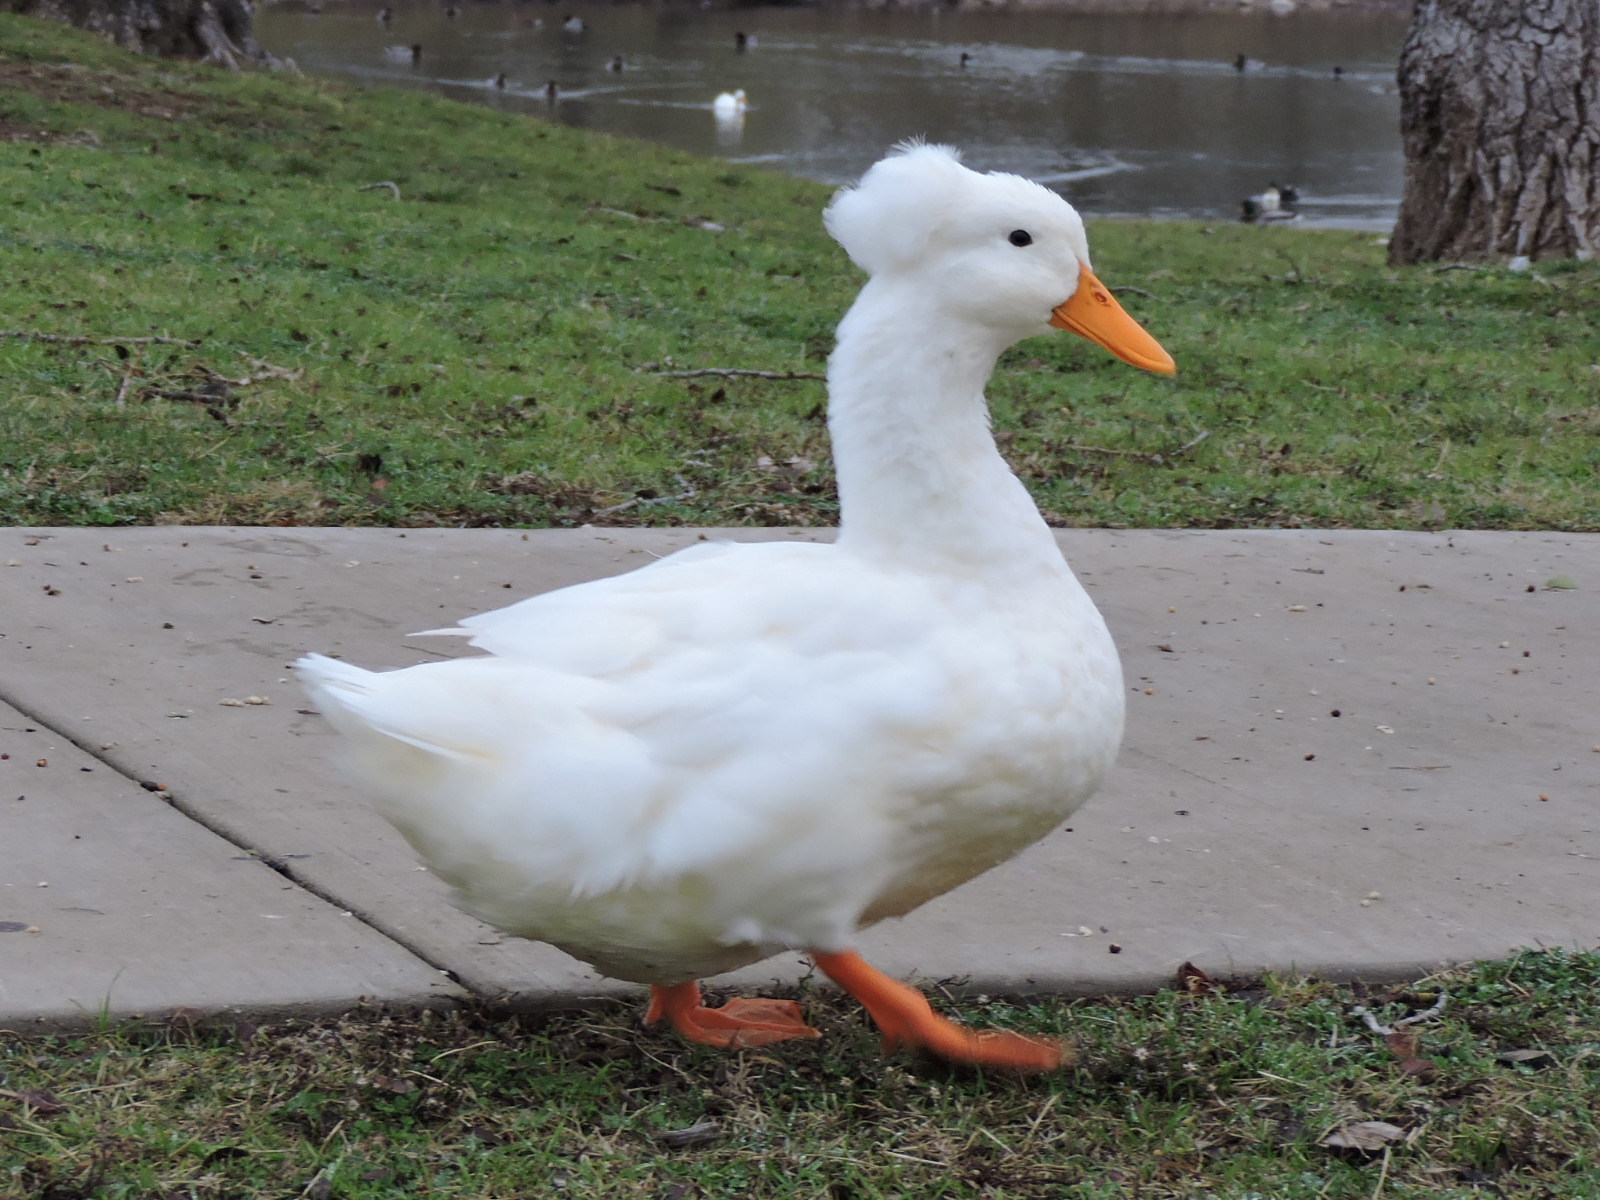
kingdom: Animalia
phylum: Chordata
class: Aves
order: Anseriformes
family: Anatidae
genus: Anas
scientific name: Anas platyrhynchos
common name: Mallard
